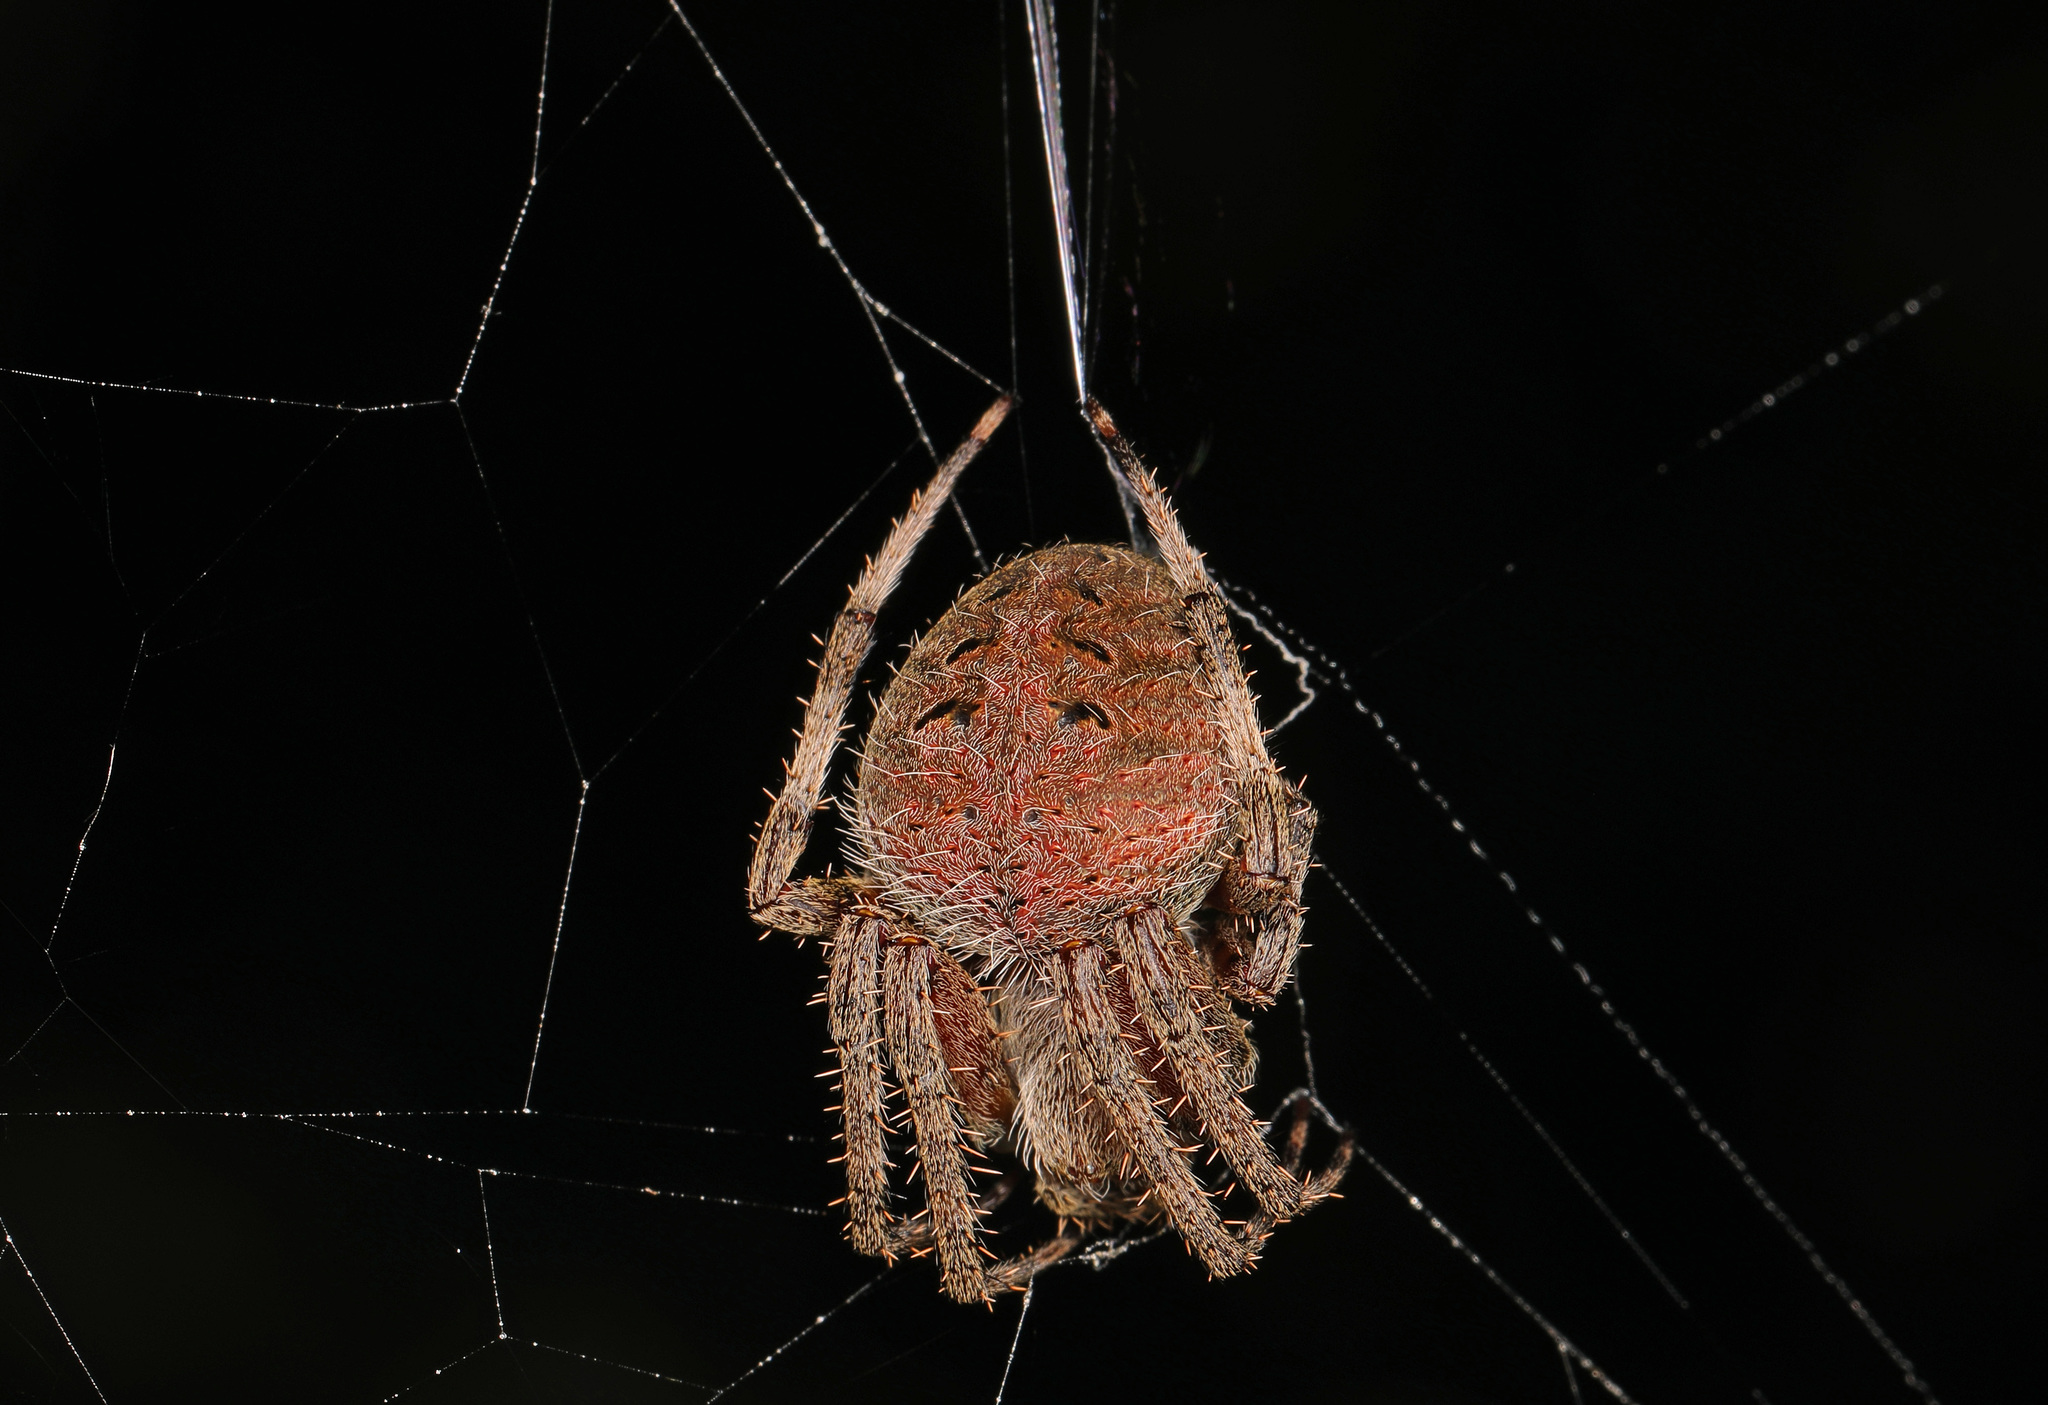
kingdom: Animalia
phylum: Arthropoda
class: Arachnida
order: Araneae
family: Araneidae
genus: Neoscona
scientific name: Neoscona arabesca
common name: Orb weavers
